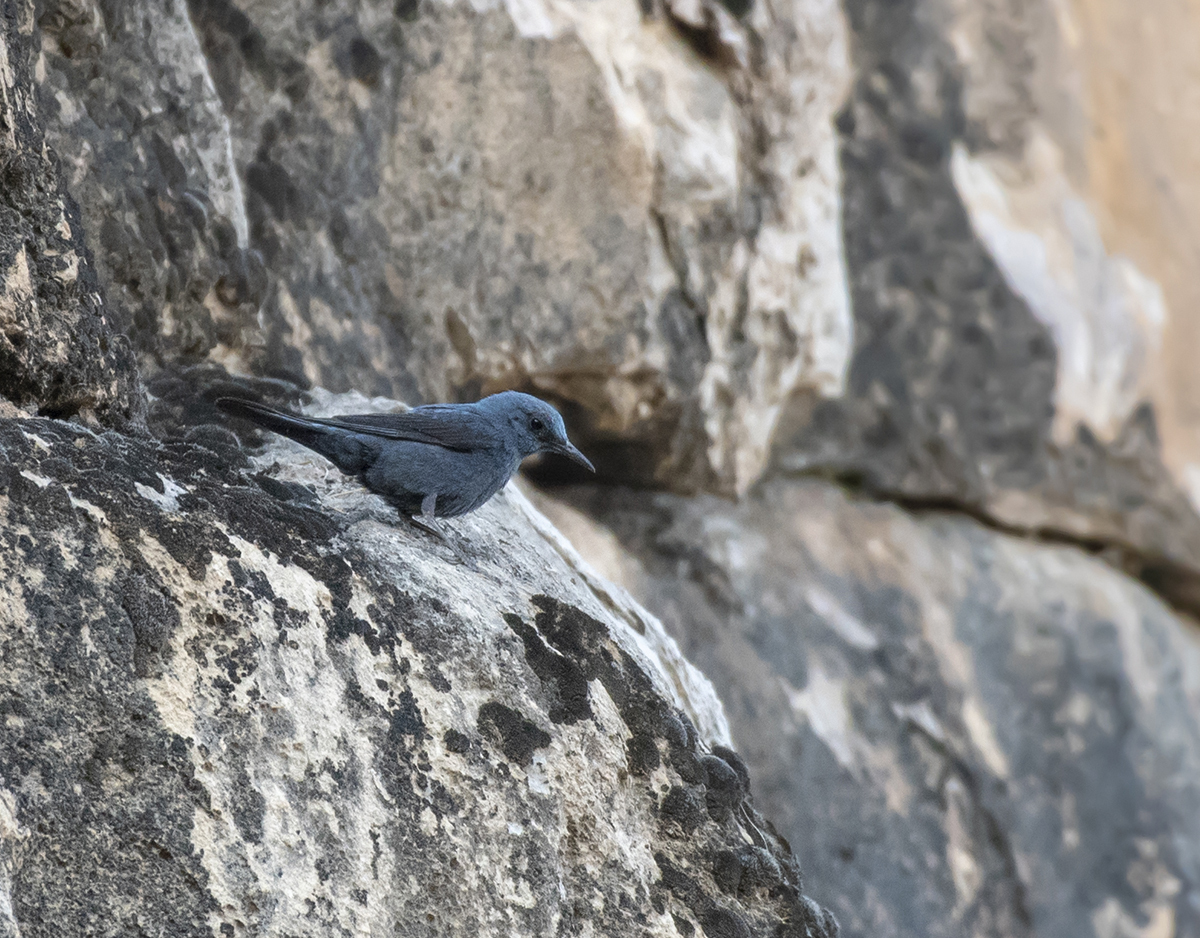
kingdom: Animalia
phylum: Chordata
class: Aves
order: Passeriformes
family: Muscicapidae
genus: Monticola
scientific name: Monticola solitarius
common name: Blue rock thrush
